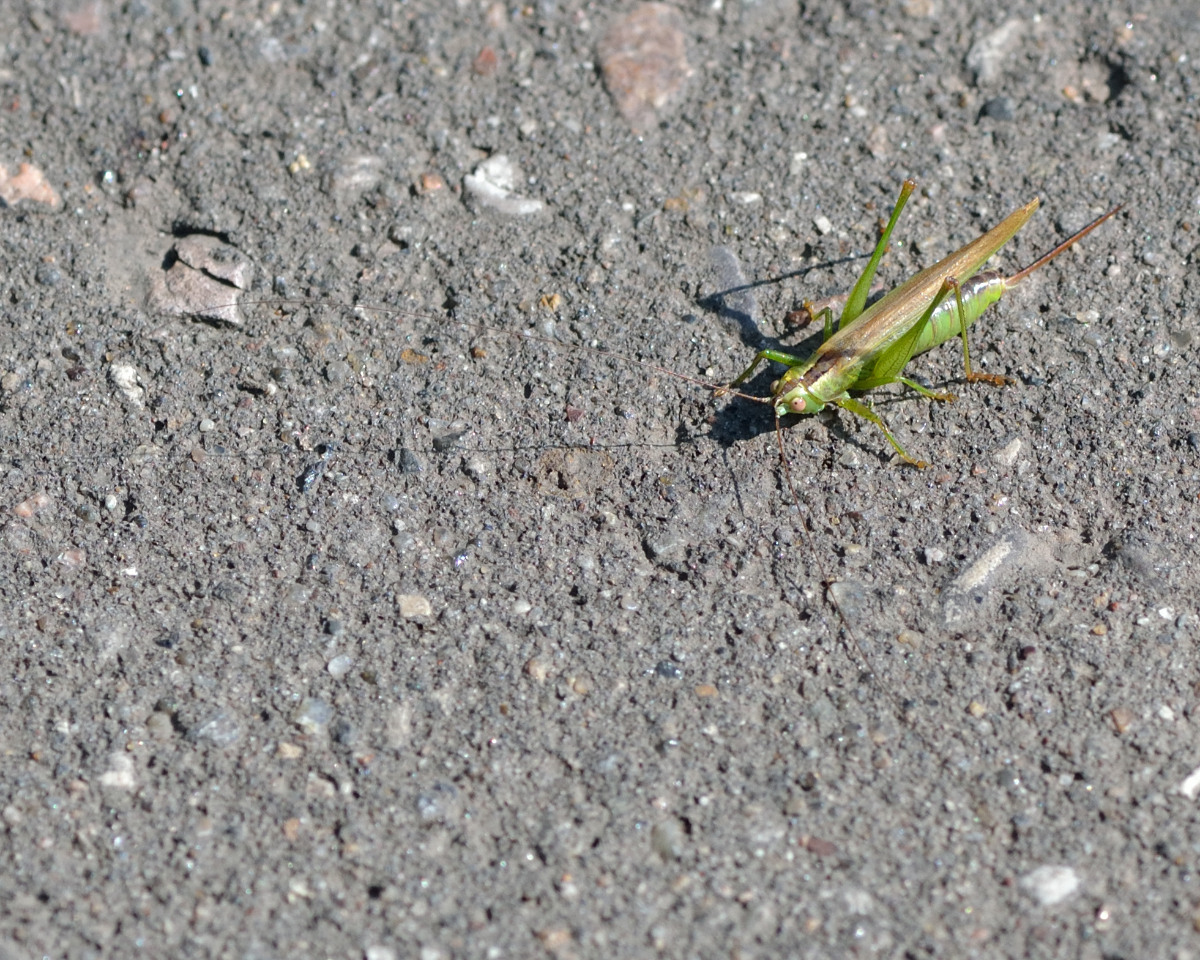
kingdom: Animalia
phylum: Arthropoda
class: Insecta
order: Orthoptera
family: Tettigoniidae
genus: Conocephalus
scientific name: Conocephalus fuscus
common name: Long-winged conehead
